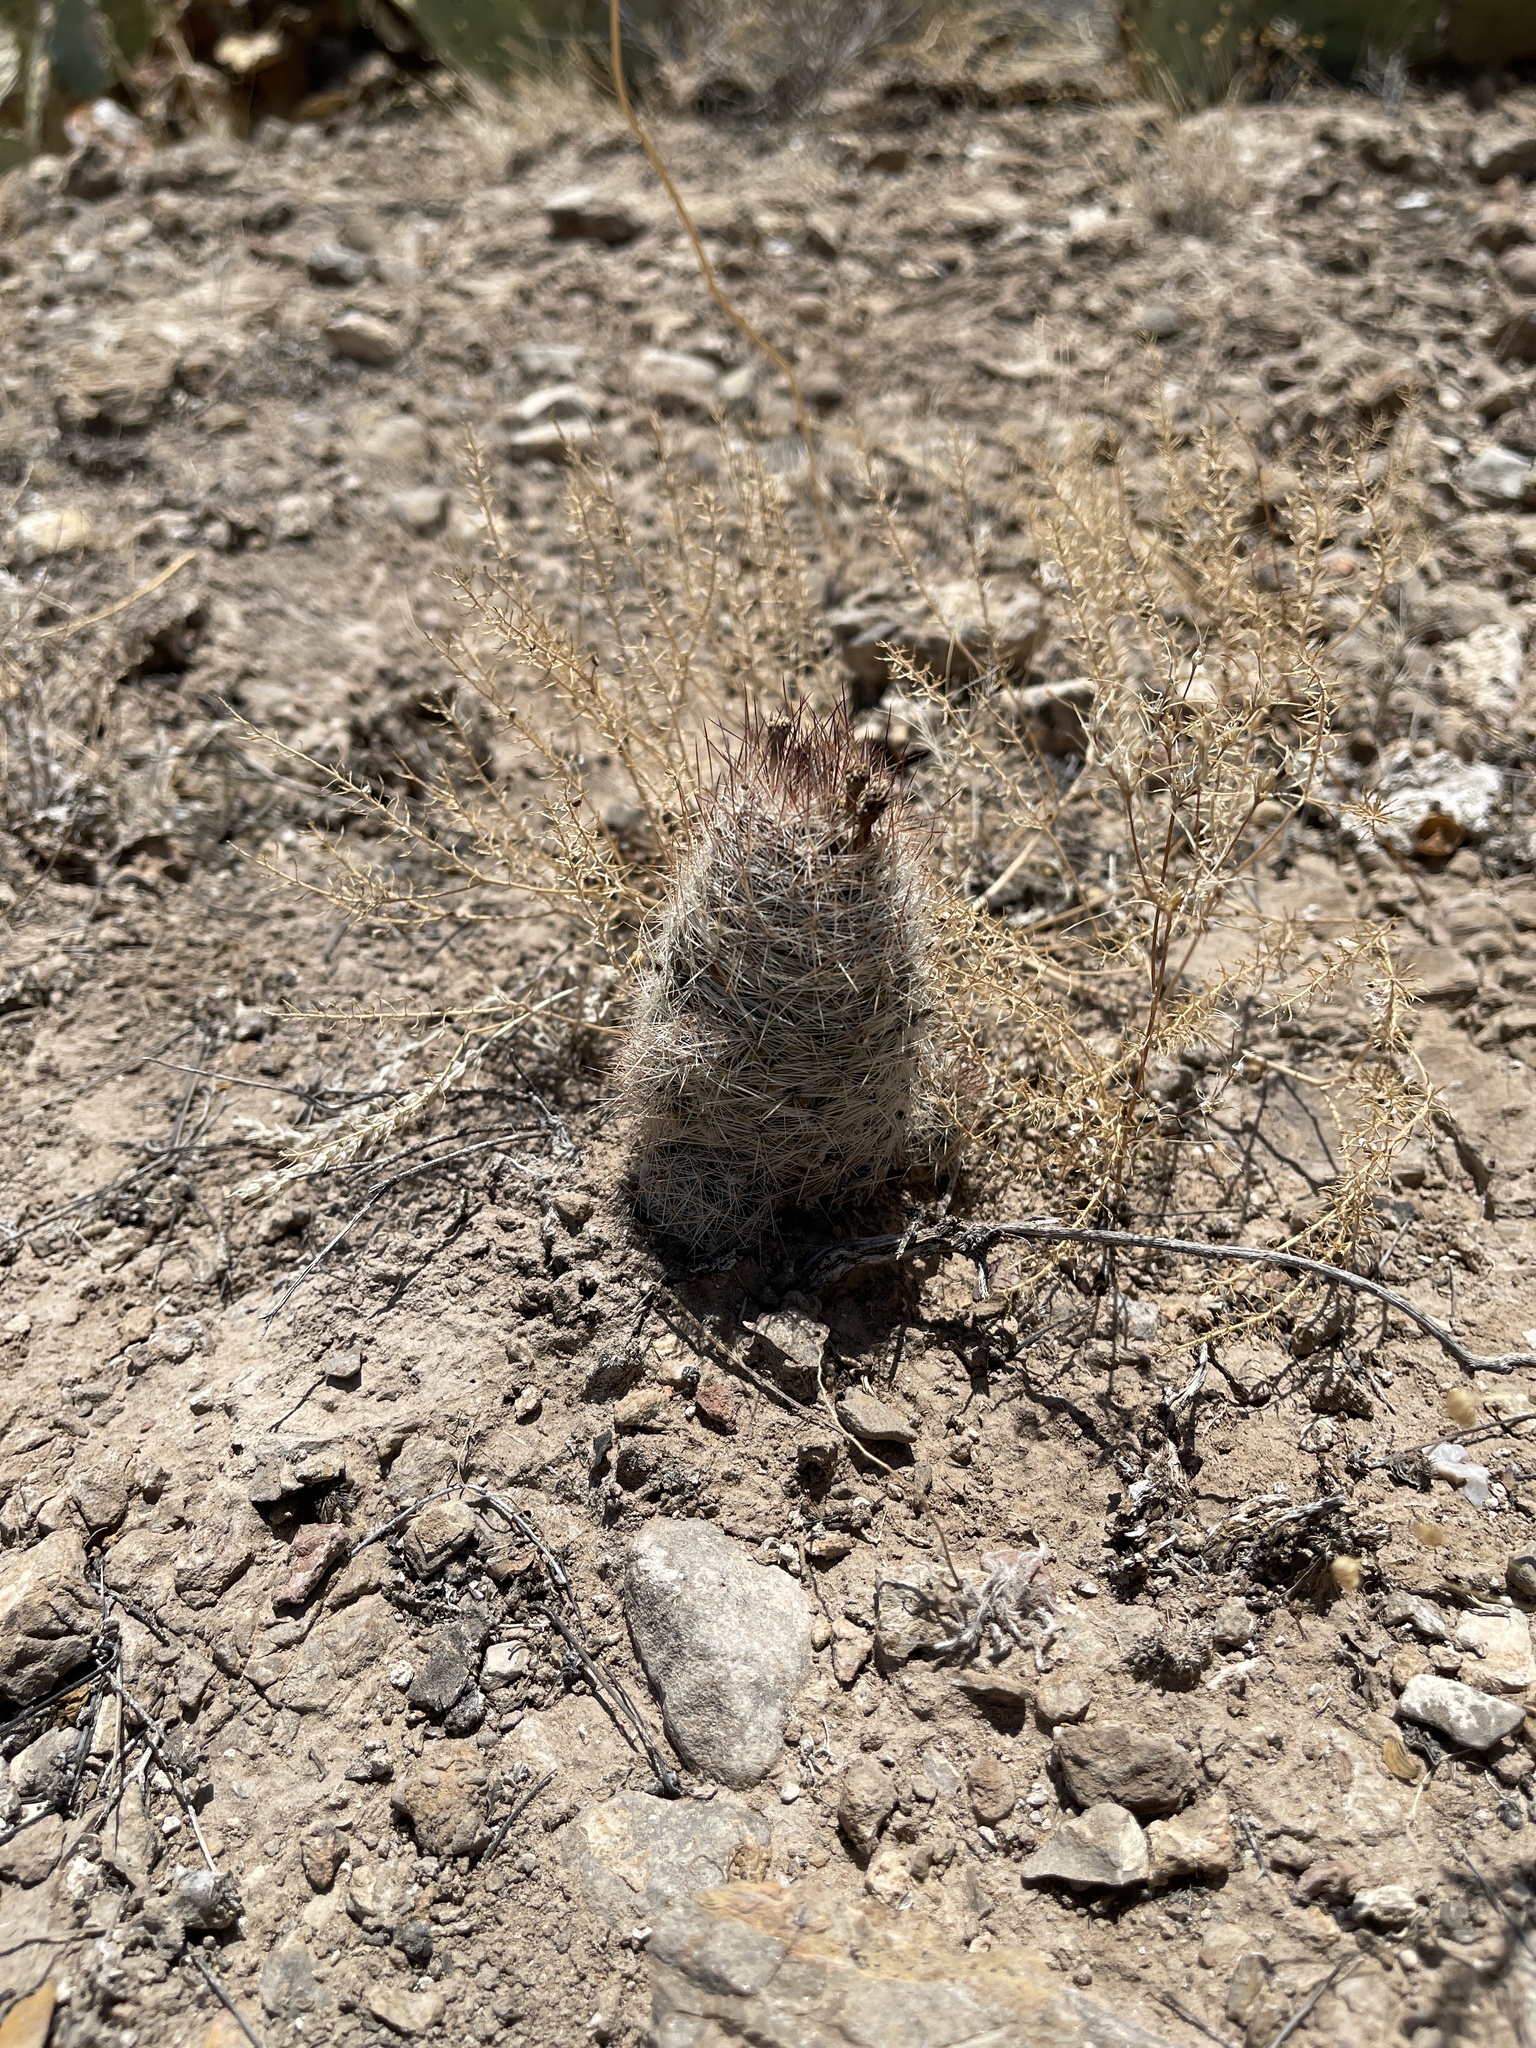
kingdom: Plantae
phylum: Tracheophyta
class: Magnoliopsida
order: Caryophyllales
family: Cactaceae
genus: Pelecyphora
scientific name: Pelecyphora tuberculosa
